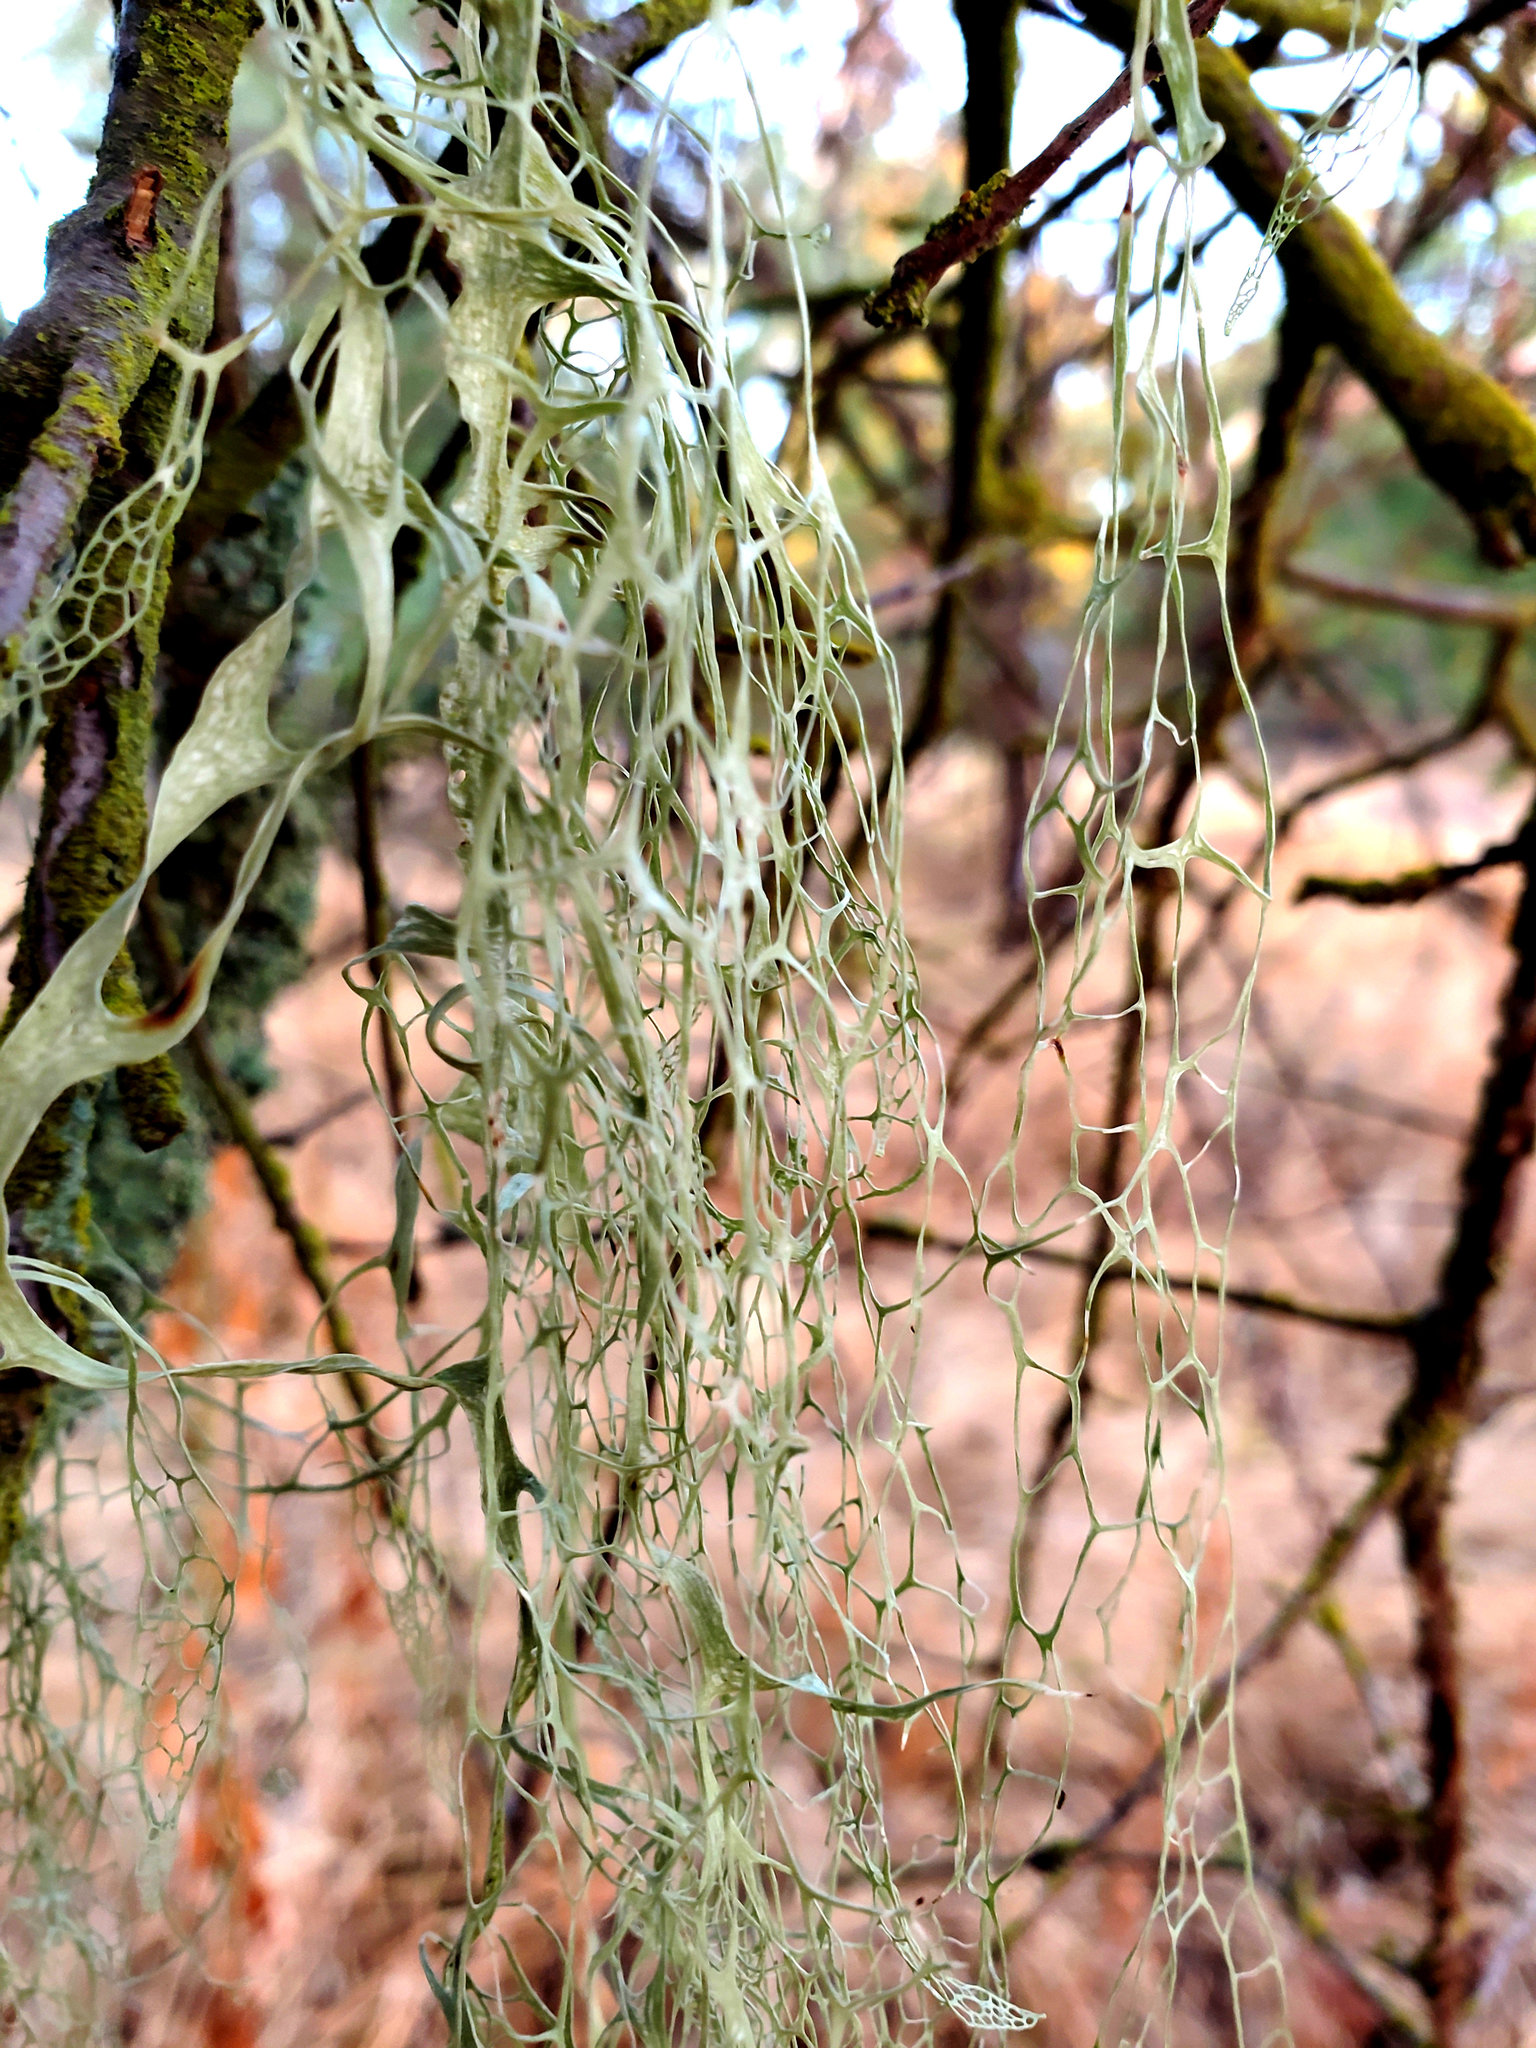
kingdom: Fungi
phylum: Ascomycota
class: Lecanoromycetes
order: Lecanorales
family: Ramalinaceae
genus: Ramalina
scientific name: Ramalina menziesii
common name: Lace lichen
